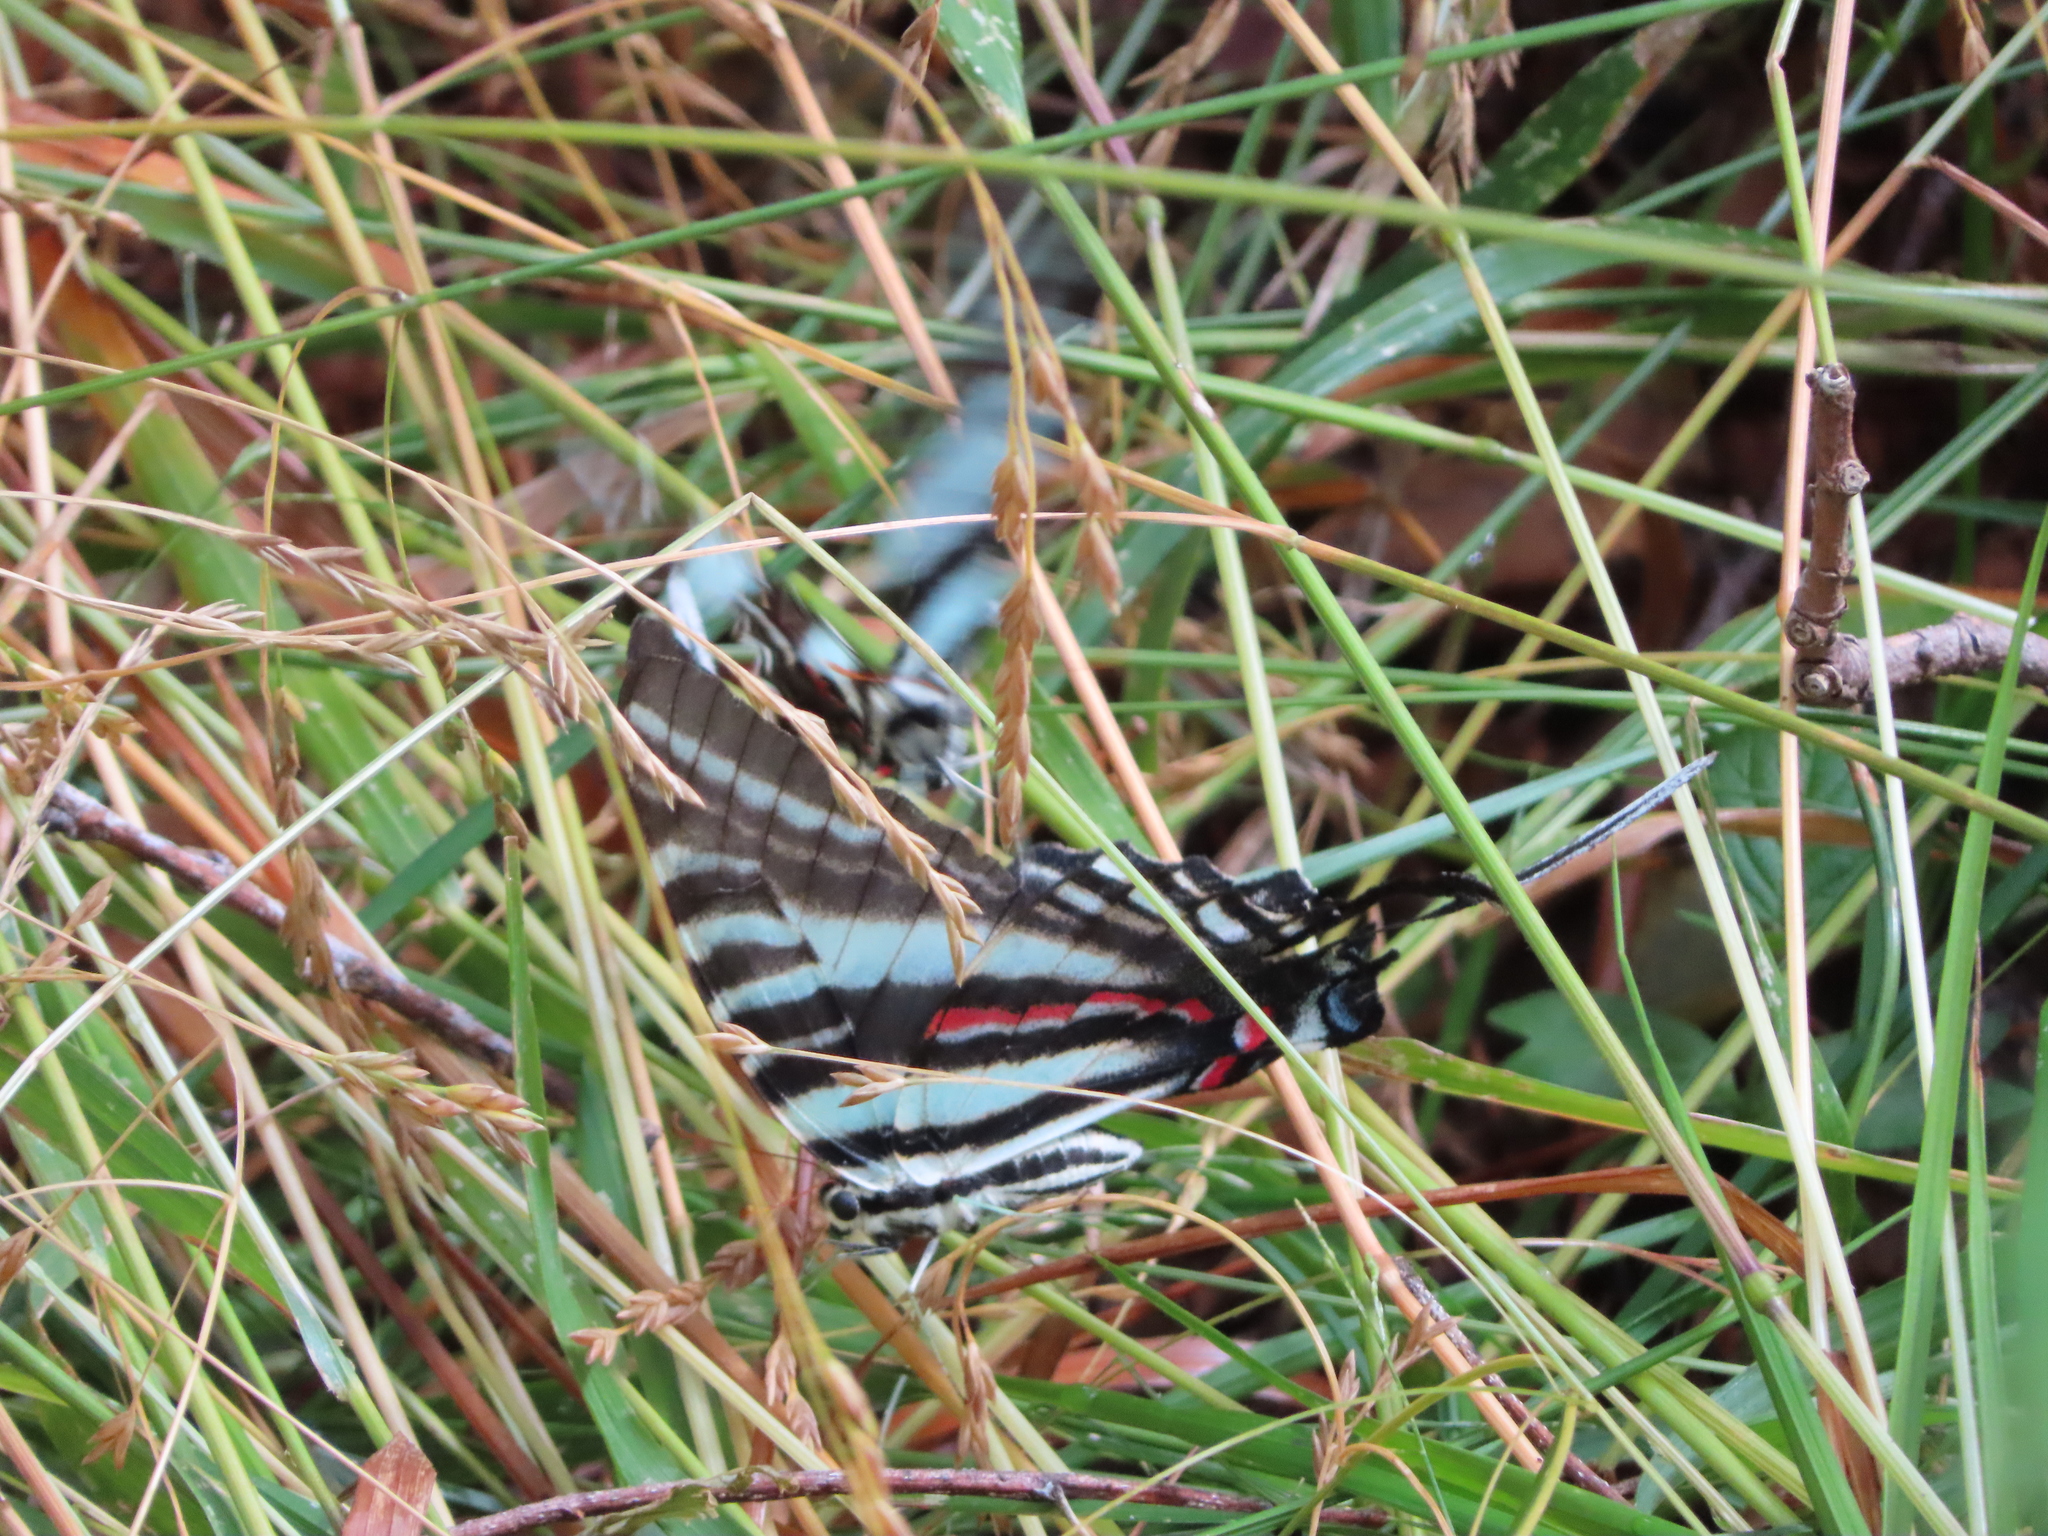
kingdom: Animalia
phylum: Arthropoda
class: Insecta
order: Lepidoptera
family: Papilionidae
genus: Protographium
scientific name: Protographium marcellus
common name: Zebra swallowtail
